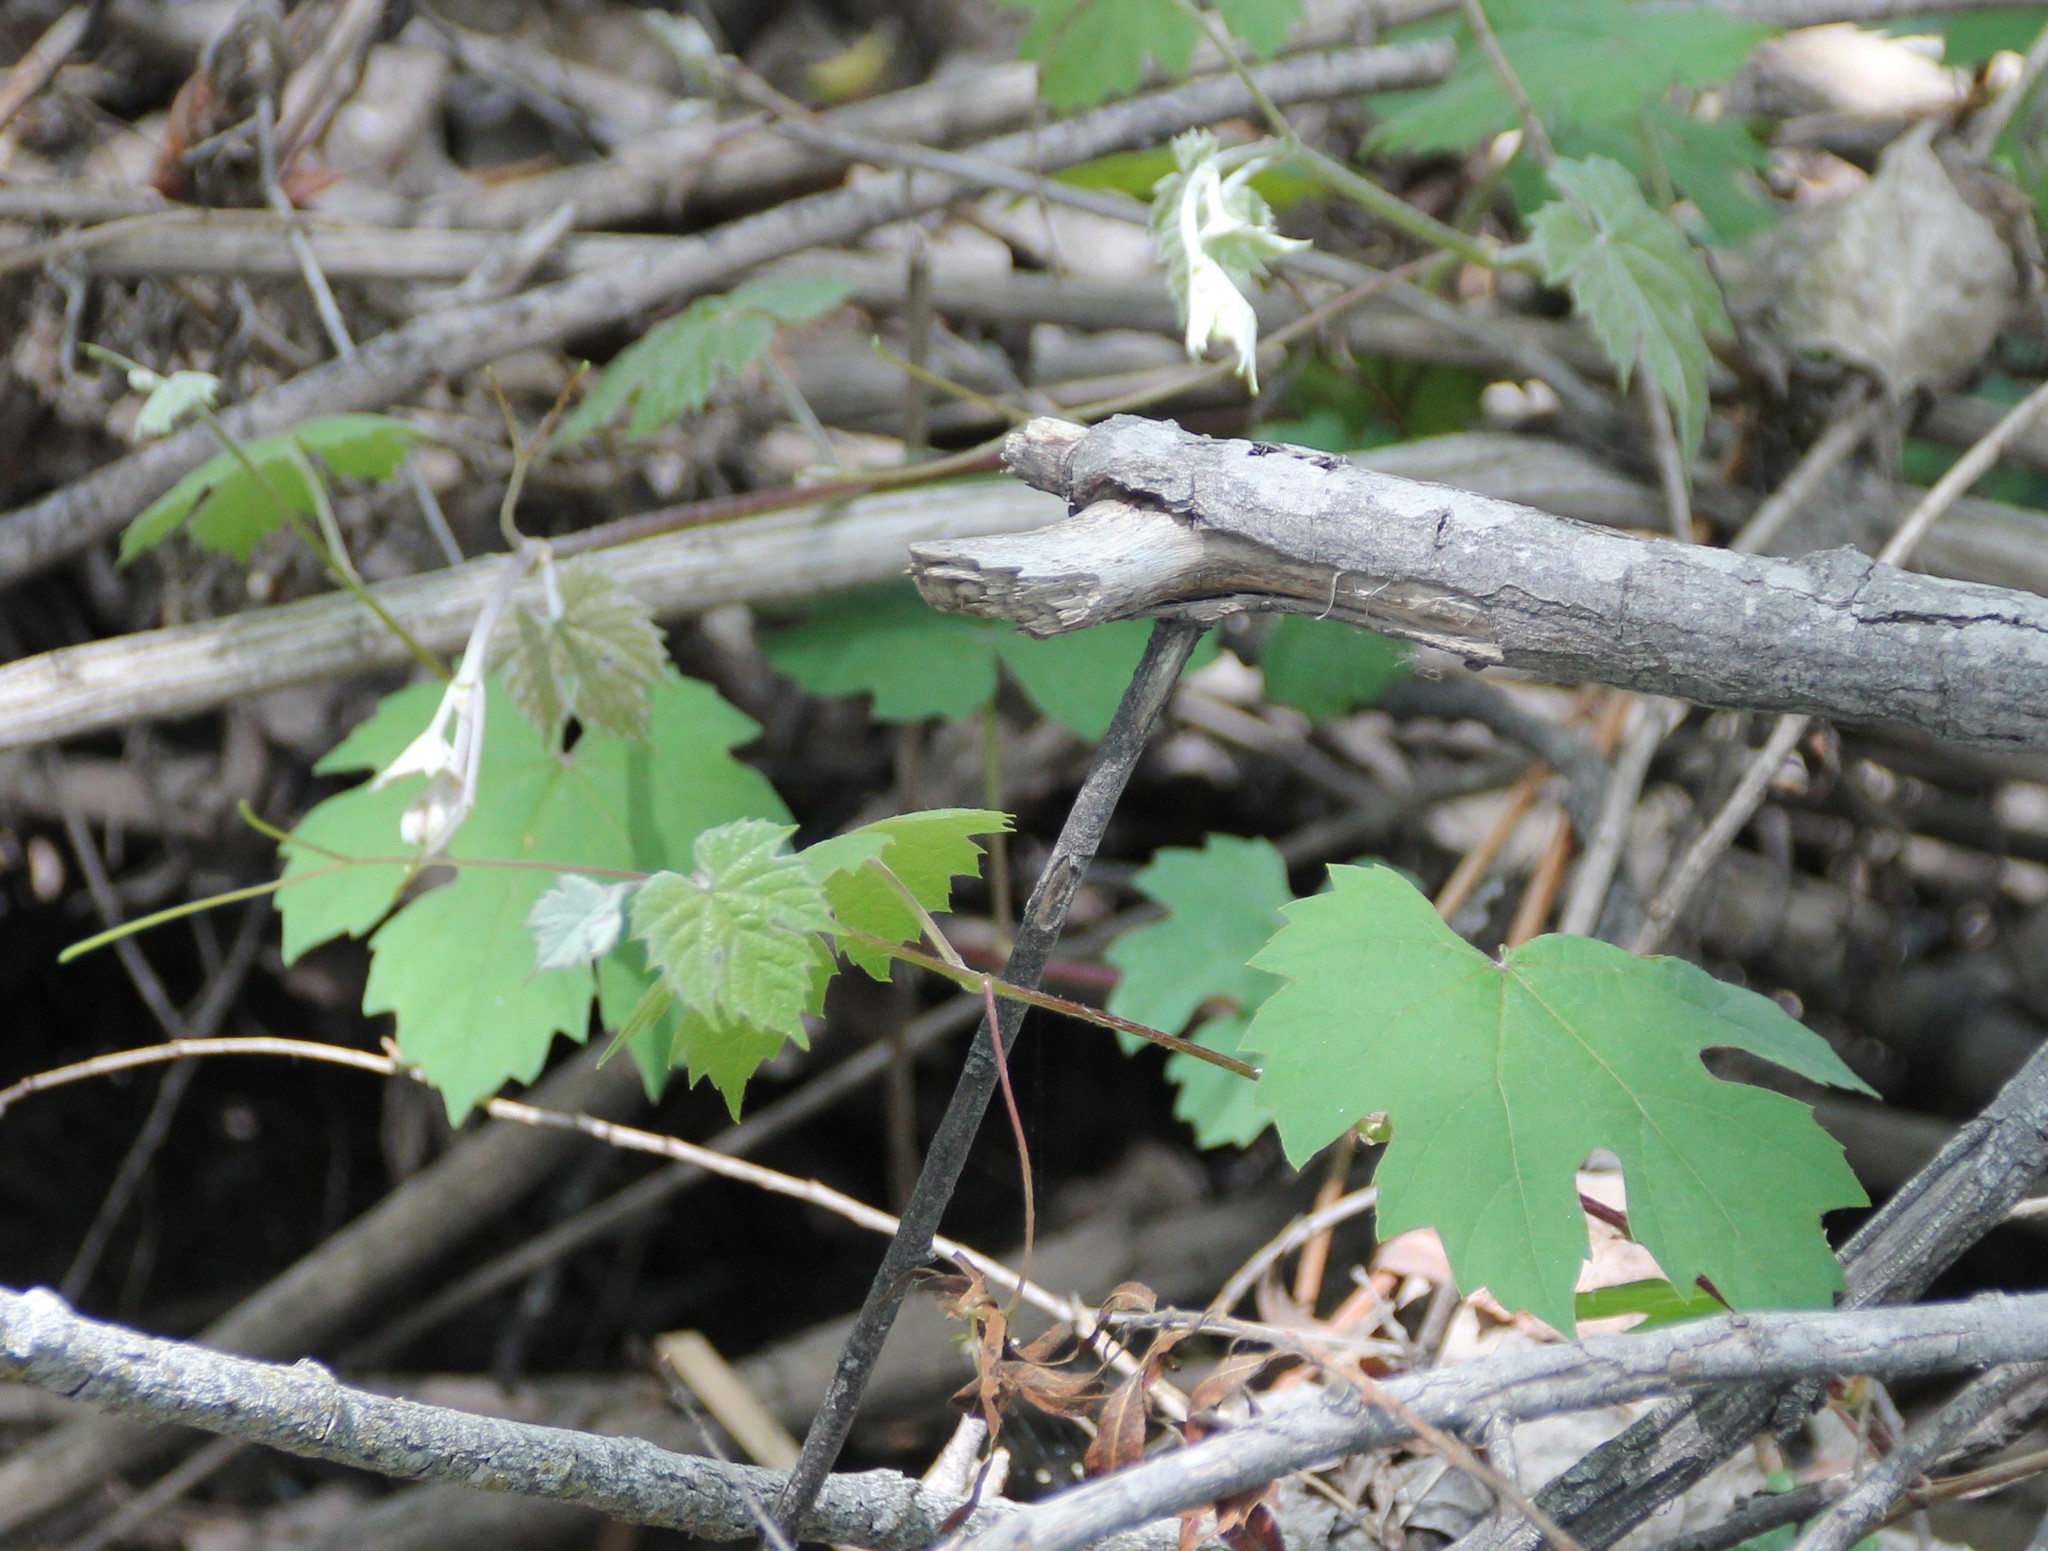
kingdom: Plantae
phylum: Tracheophyta
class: Magnoliopsida
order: Vitales
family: Vitaceae
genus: Vitis
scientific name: Vitis girdiana
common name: Desert wild grape
